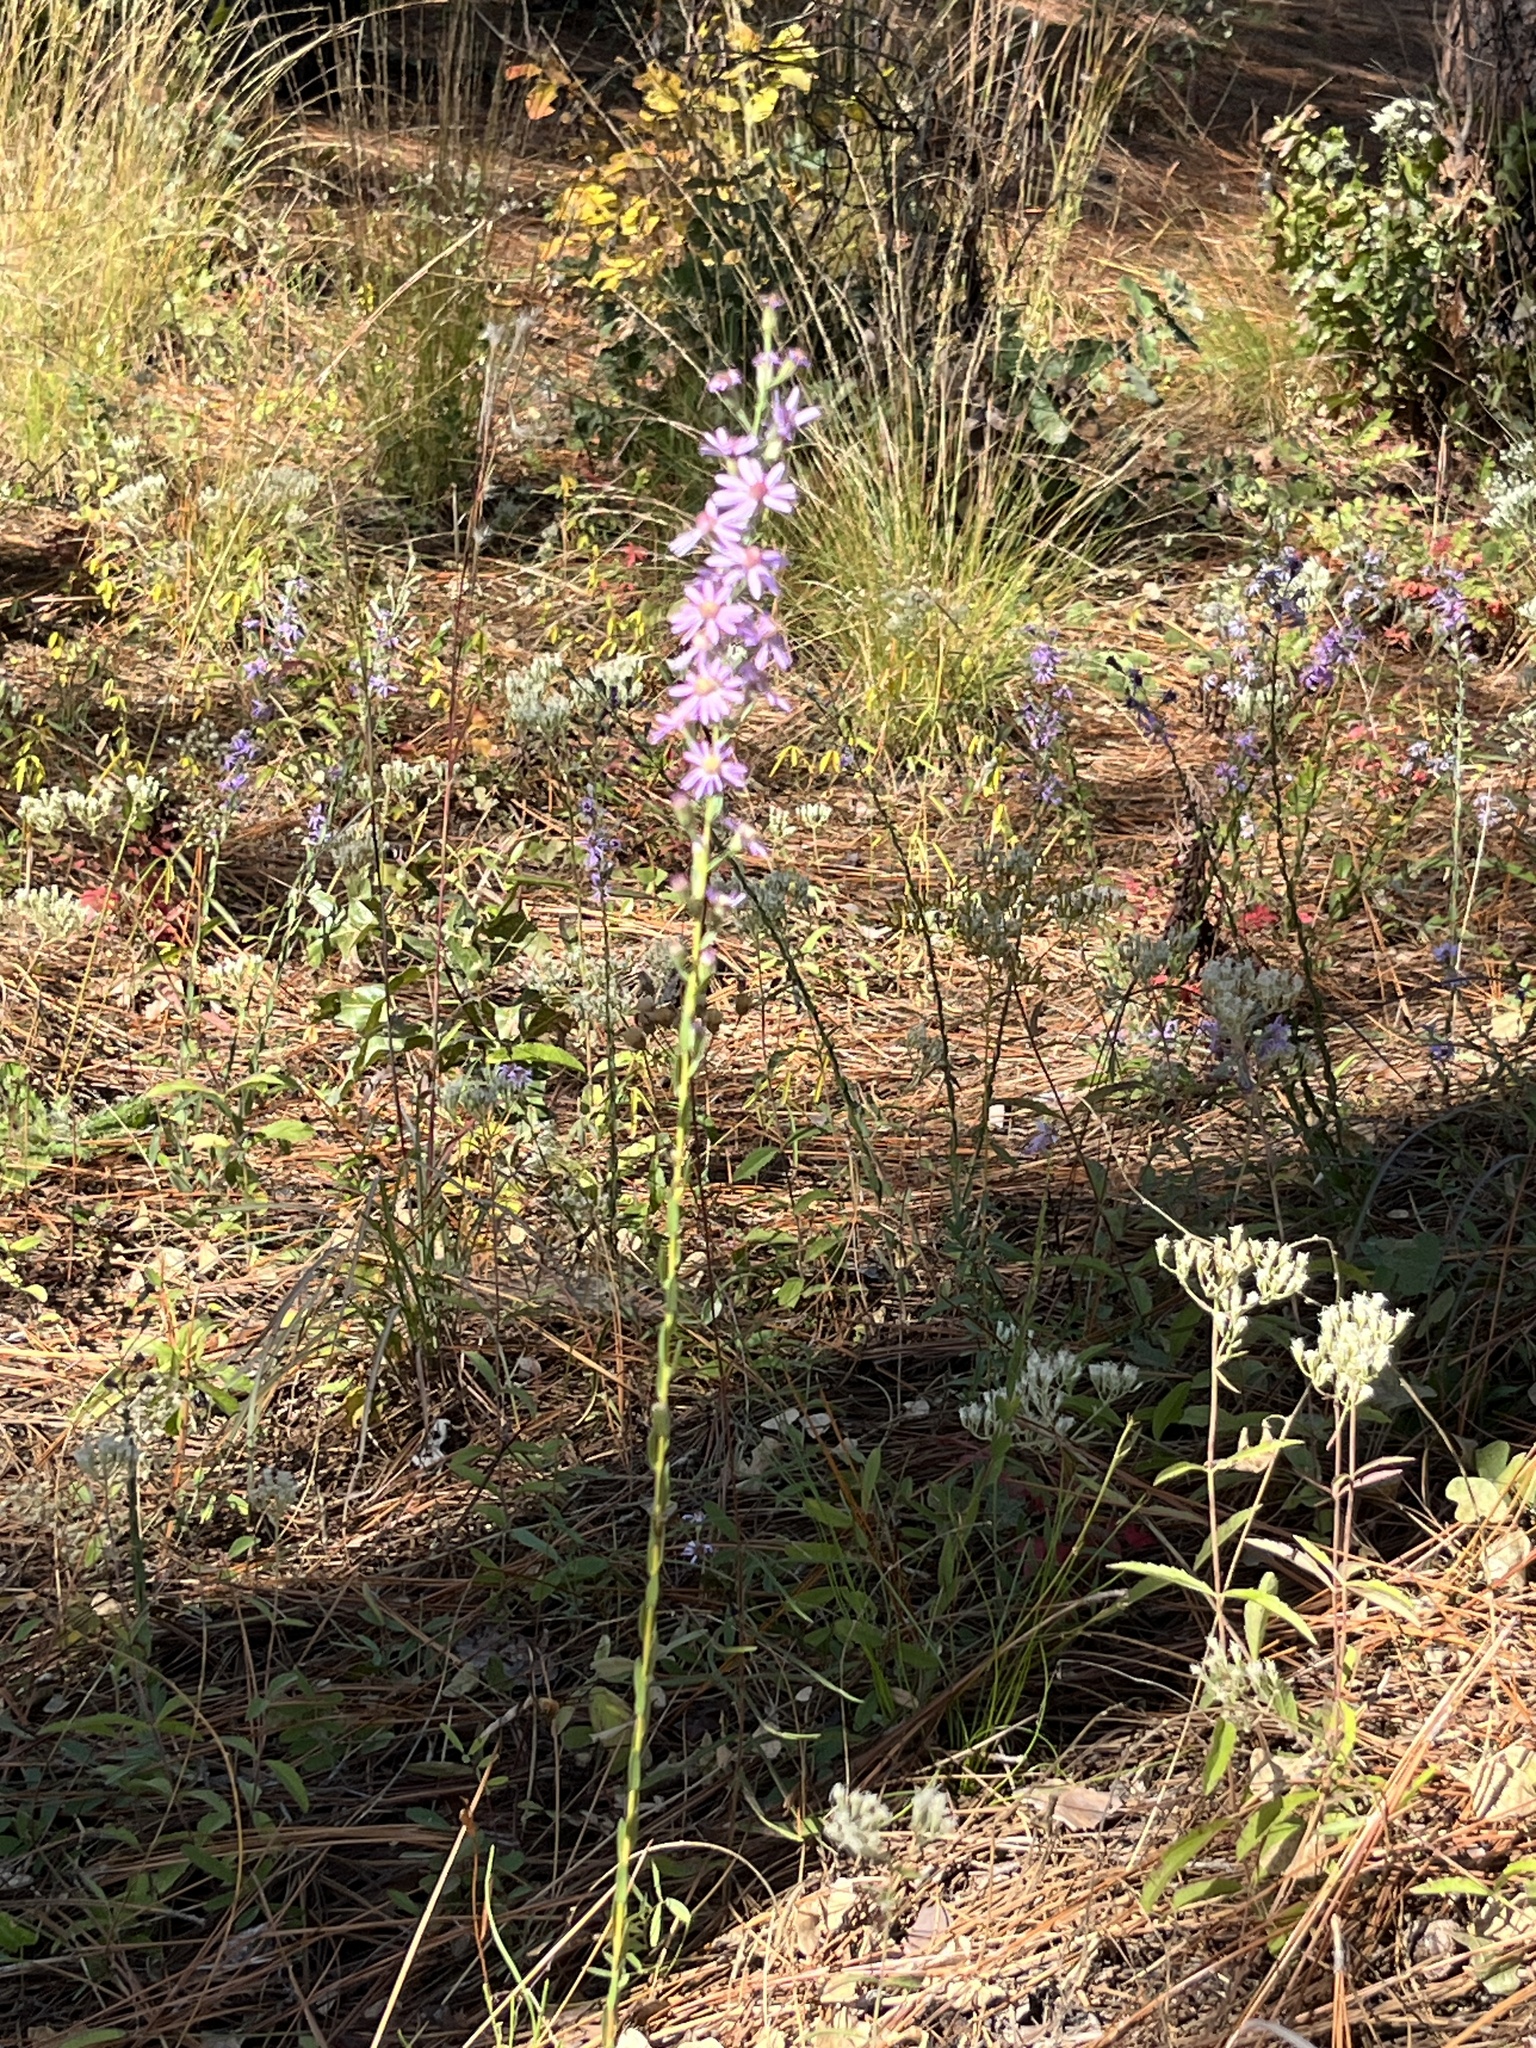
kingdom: Plantae
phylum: Tracheophyta
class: Magnoliopsida
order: Asterales
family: Asteraceae
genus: Symphyotrichum
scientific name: Symphyotrichum concolor
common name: Eastern silver aster
